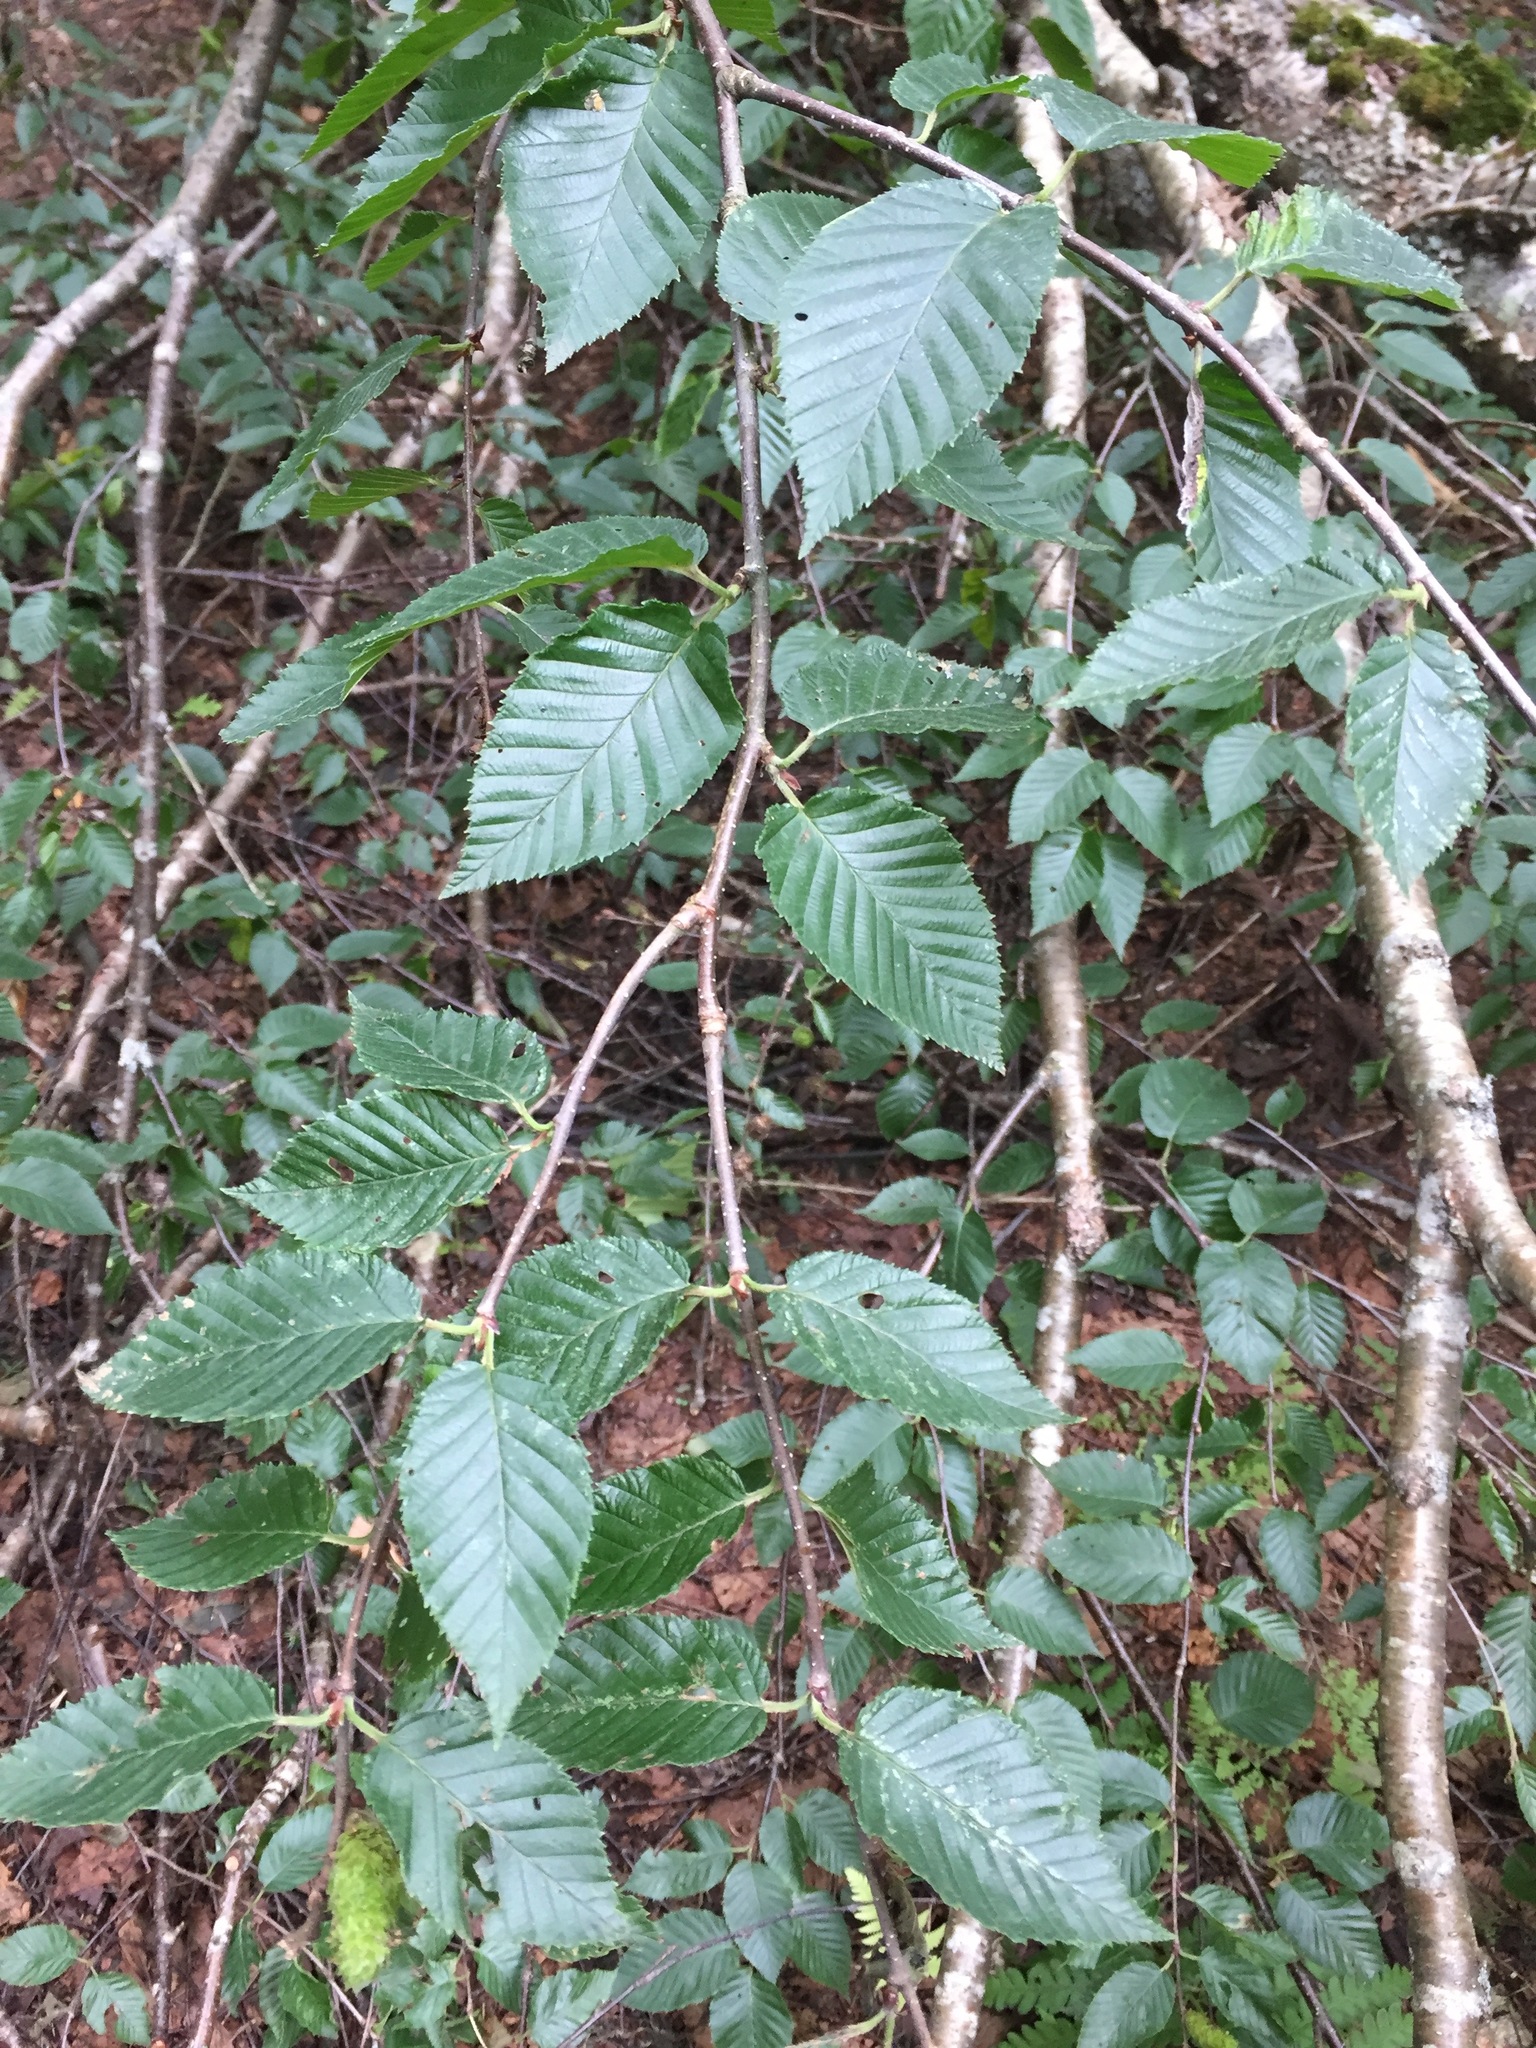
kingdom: Plantae
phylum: Tracheophyta
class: Magnoliopsida
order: Fagales
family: Betulaceae
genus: Betula
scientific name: Betula alleghaniensis
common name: Yellow birch
